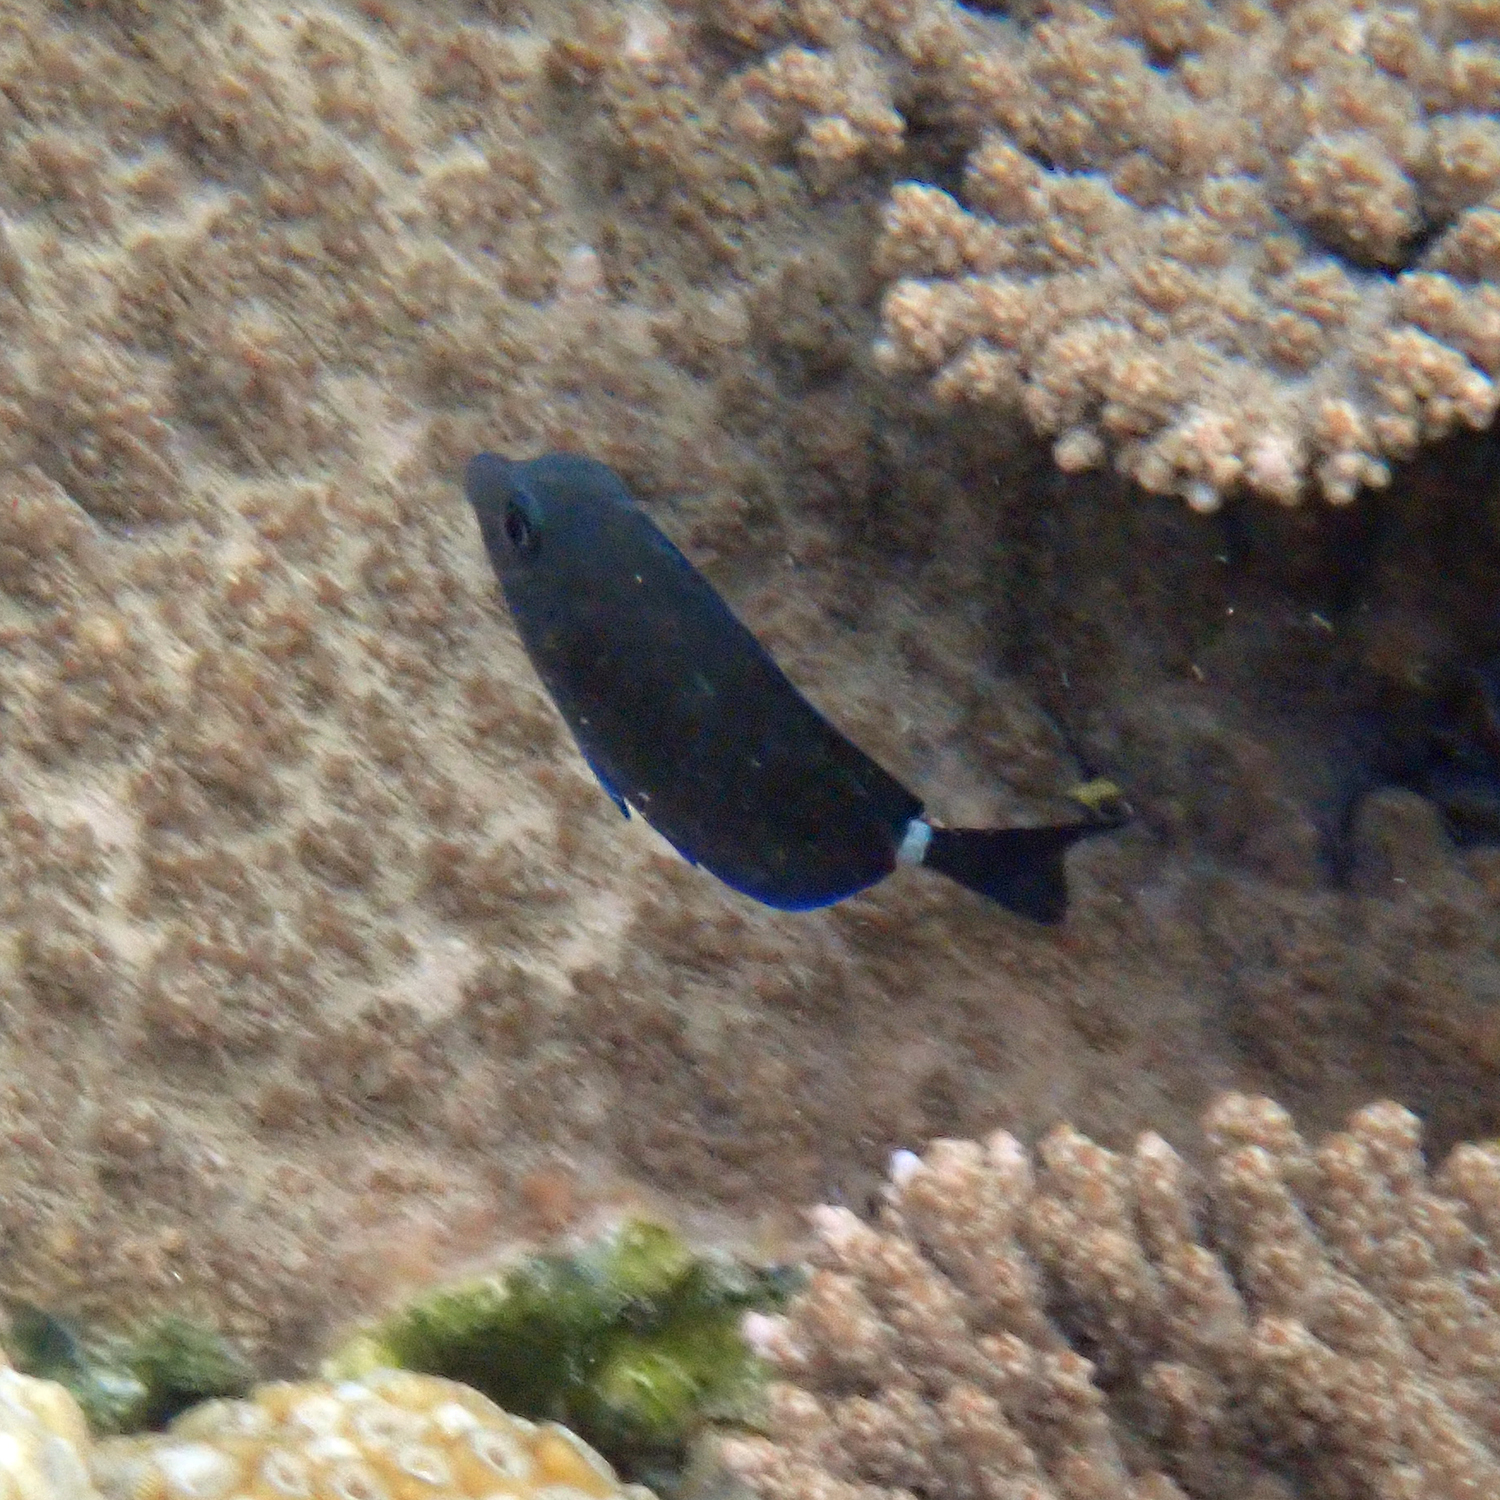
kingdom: Animalia
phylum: Chordata
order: Perciformes
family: Acanthuridae
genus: Prionurus
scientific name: Prionurus maculatus
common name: Yellowspotted sawtail
